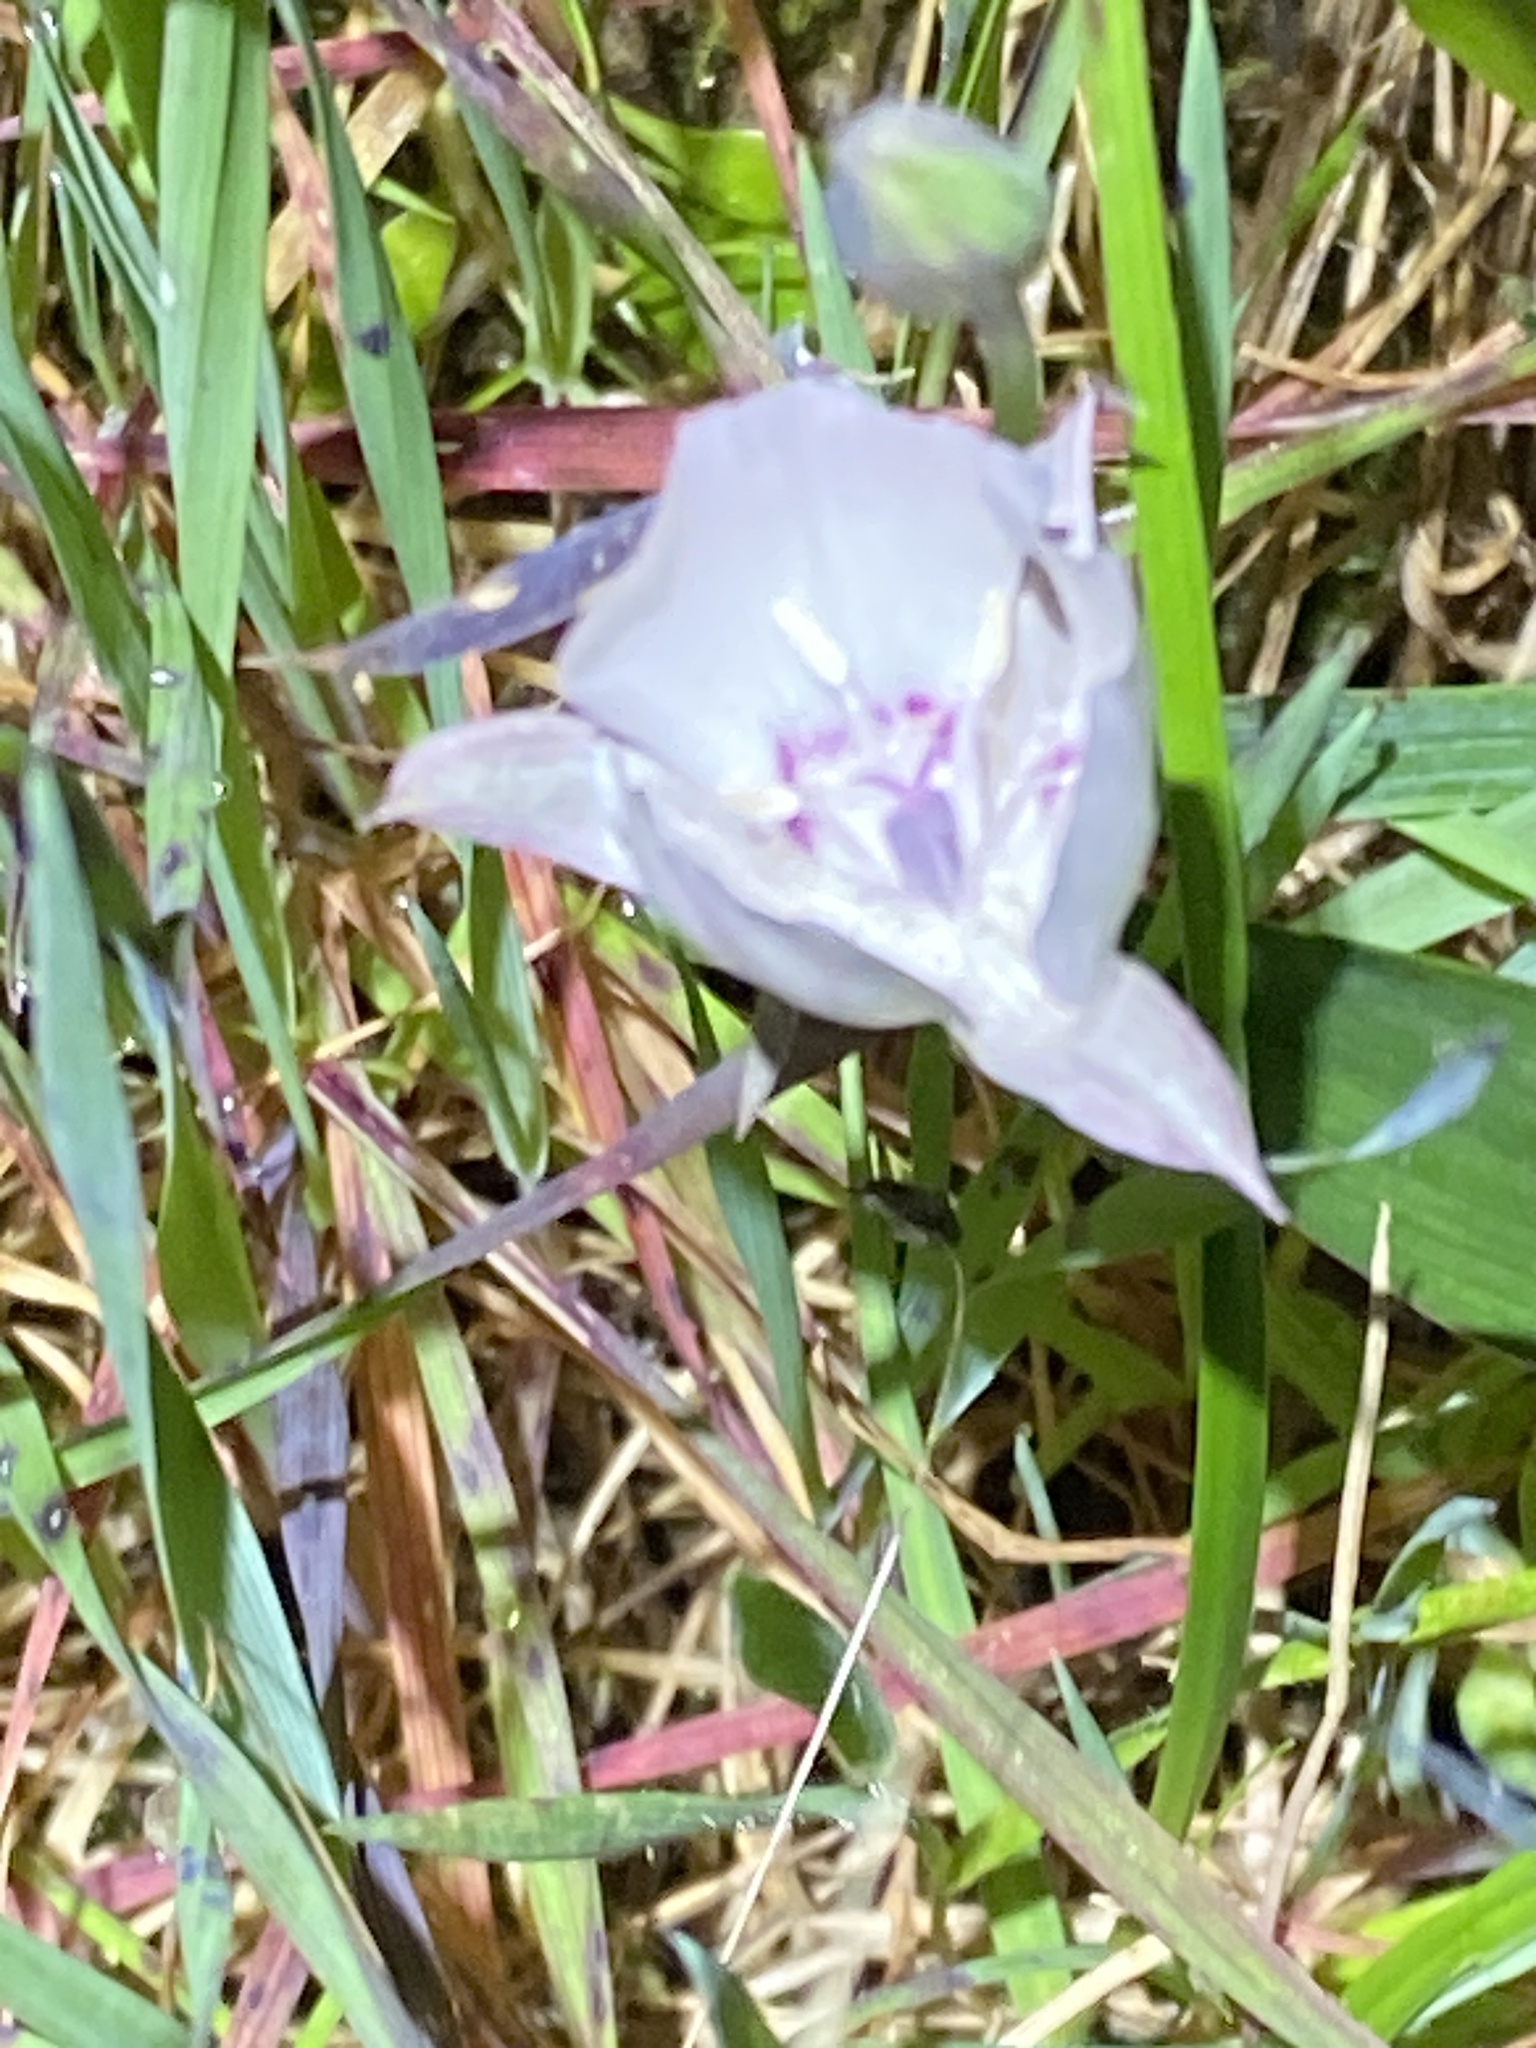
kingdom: Plantae
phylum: Tracheophyta
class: Liliopsida
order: Liliales
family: Liliaceae
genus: Calochortus
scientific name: Calochortus umbellatus
